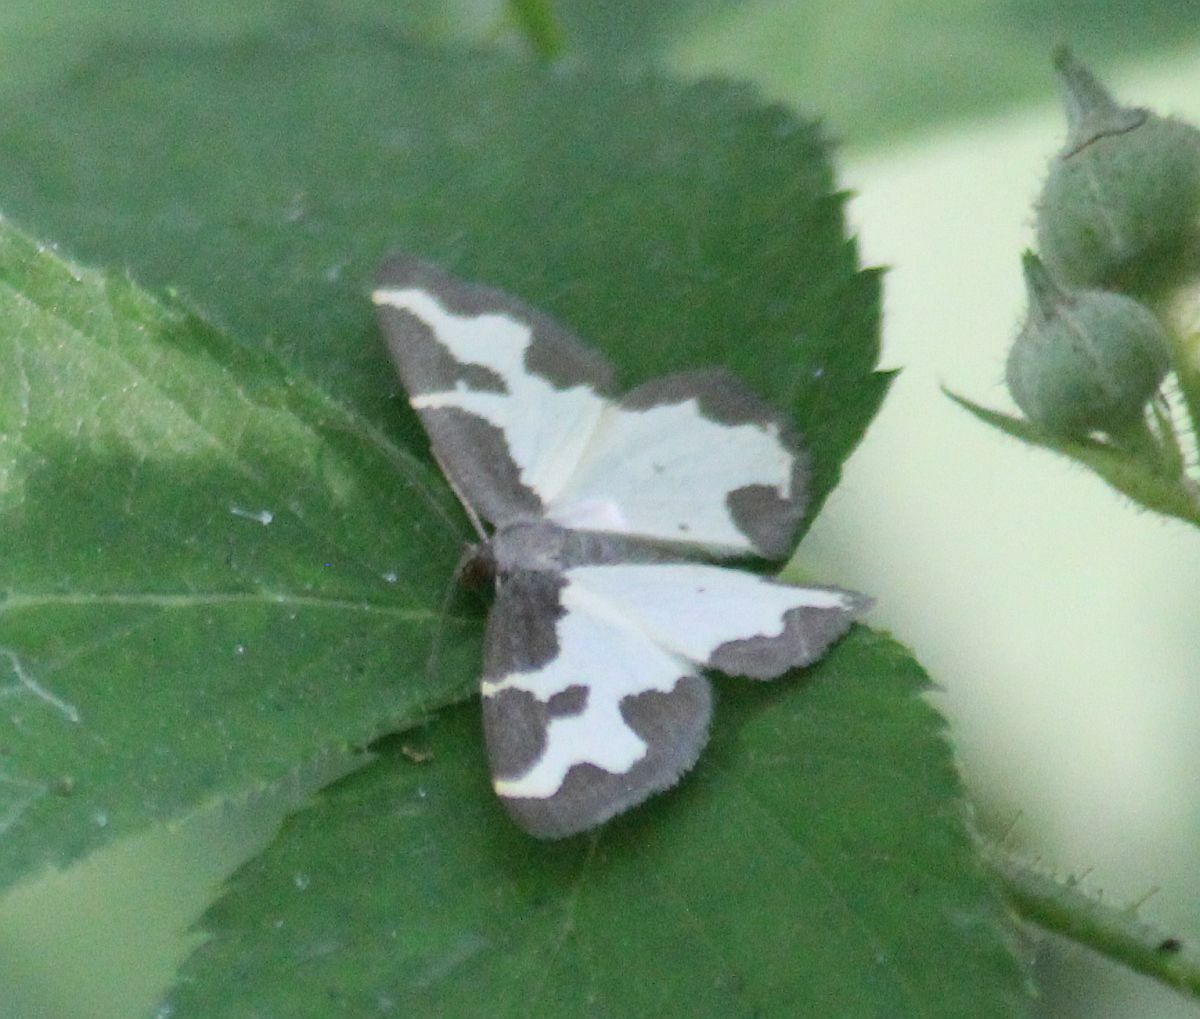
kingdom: Animalia
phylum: Arthropoda
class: Insecta
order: Lepidoptera
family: Geometridae
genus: Lomaspilis
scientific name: Lomaspilis marginata
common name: Clouded border
